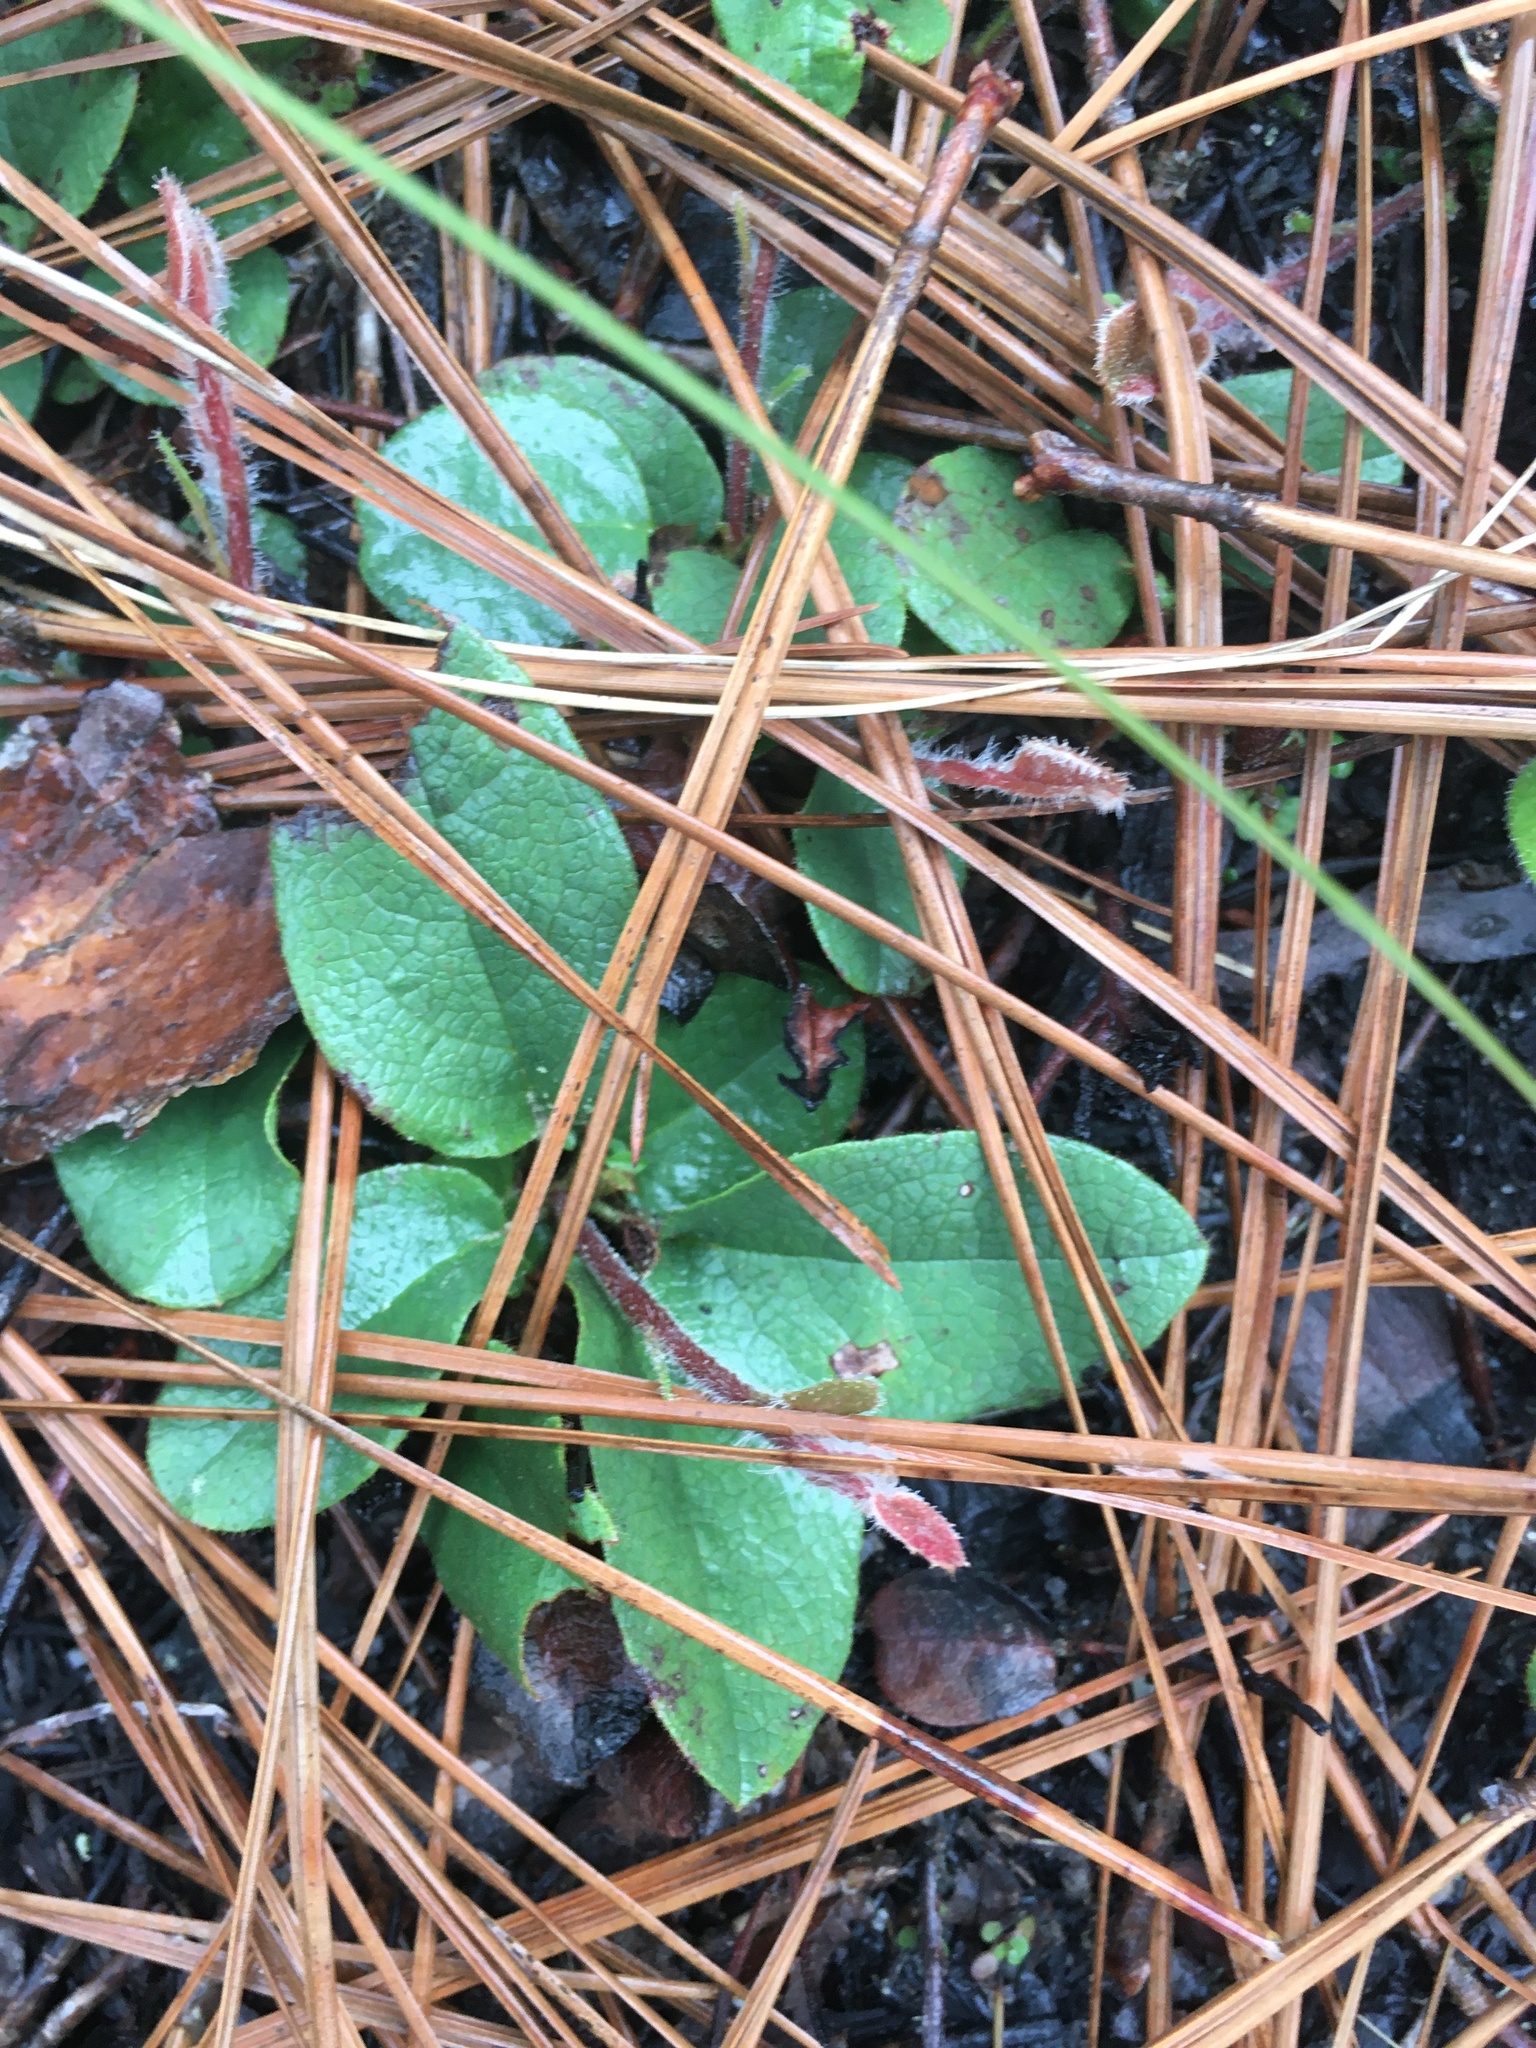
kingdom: Plantae
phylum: Tracheophyta
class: Magnoliopsida
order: Ericales
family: Ericaceae
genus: Epigaea
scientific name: Epigaea repens
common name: Gravelroot
